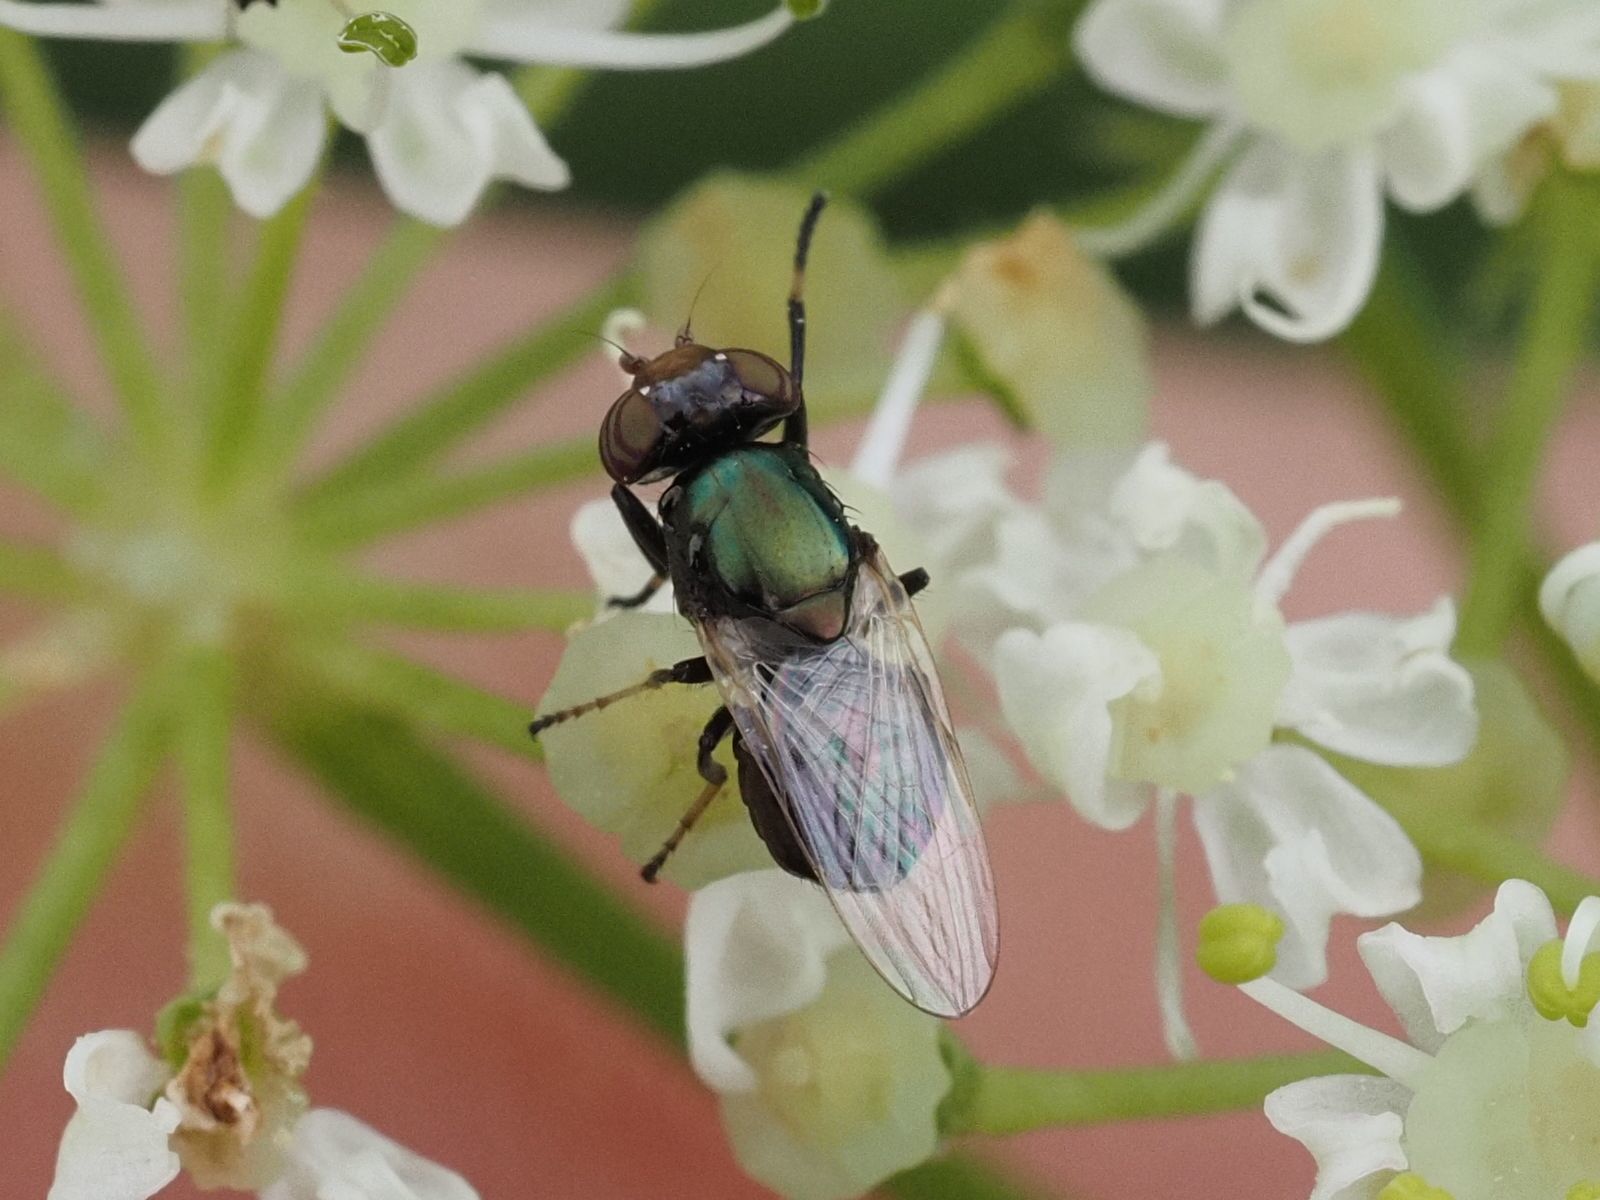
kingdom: Animalia
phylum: Arthropoda
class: Insecta
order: Diptera
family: Ulidiidae
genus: Physiphora
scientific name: Physiphora alceae
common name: Picture-winged fly
